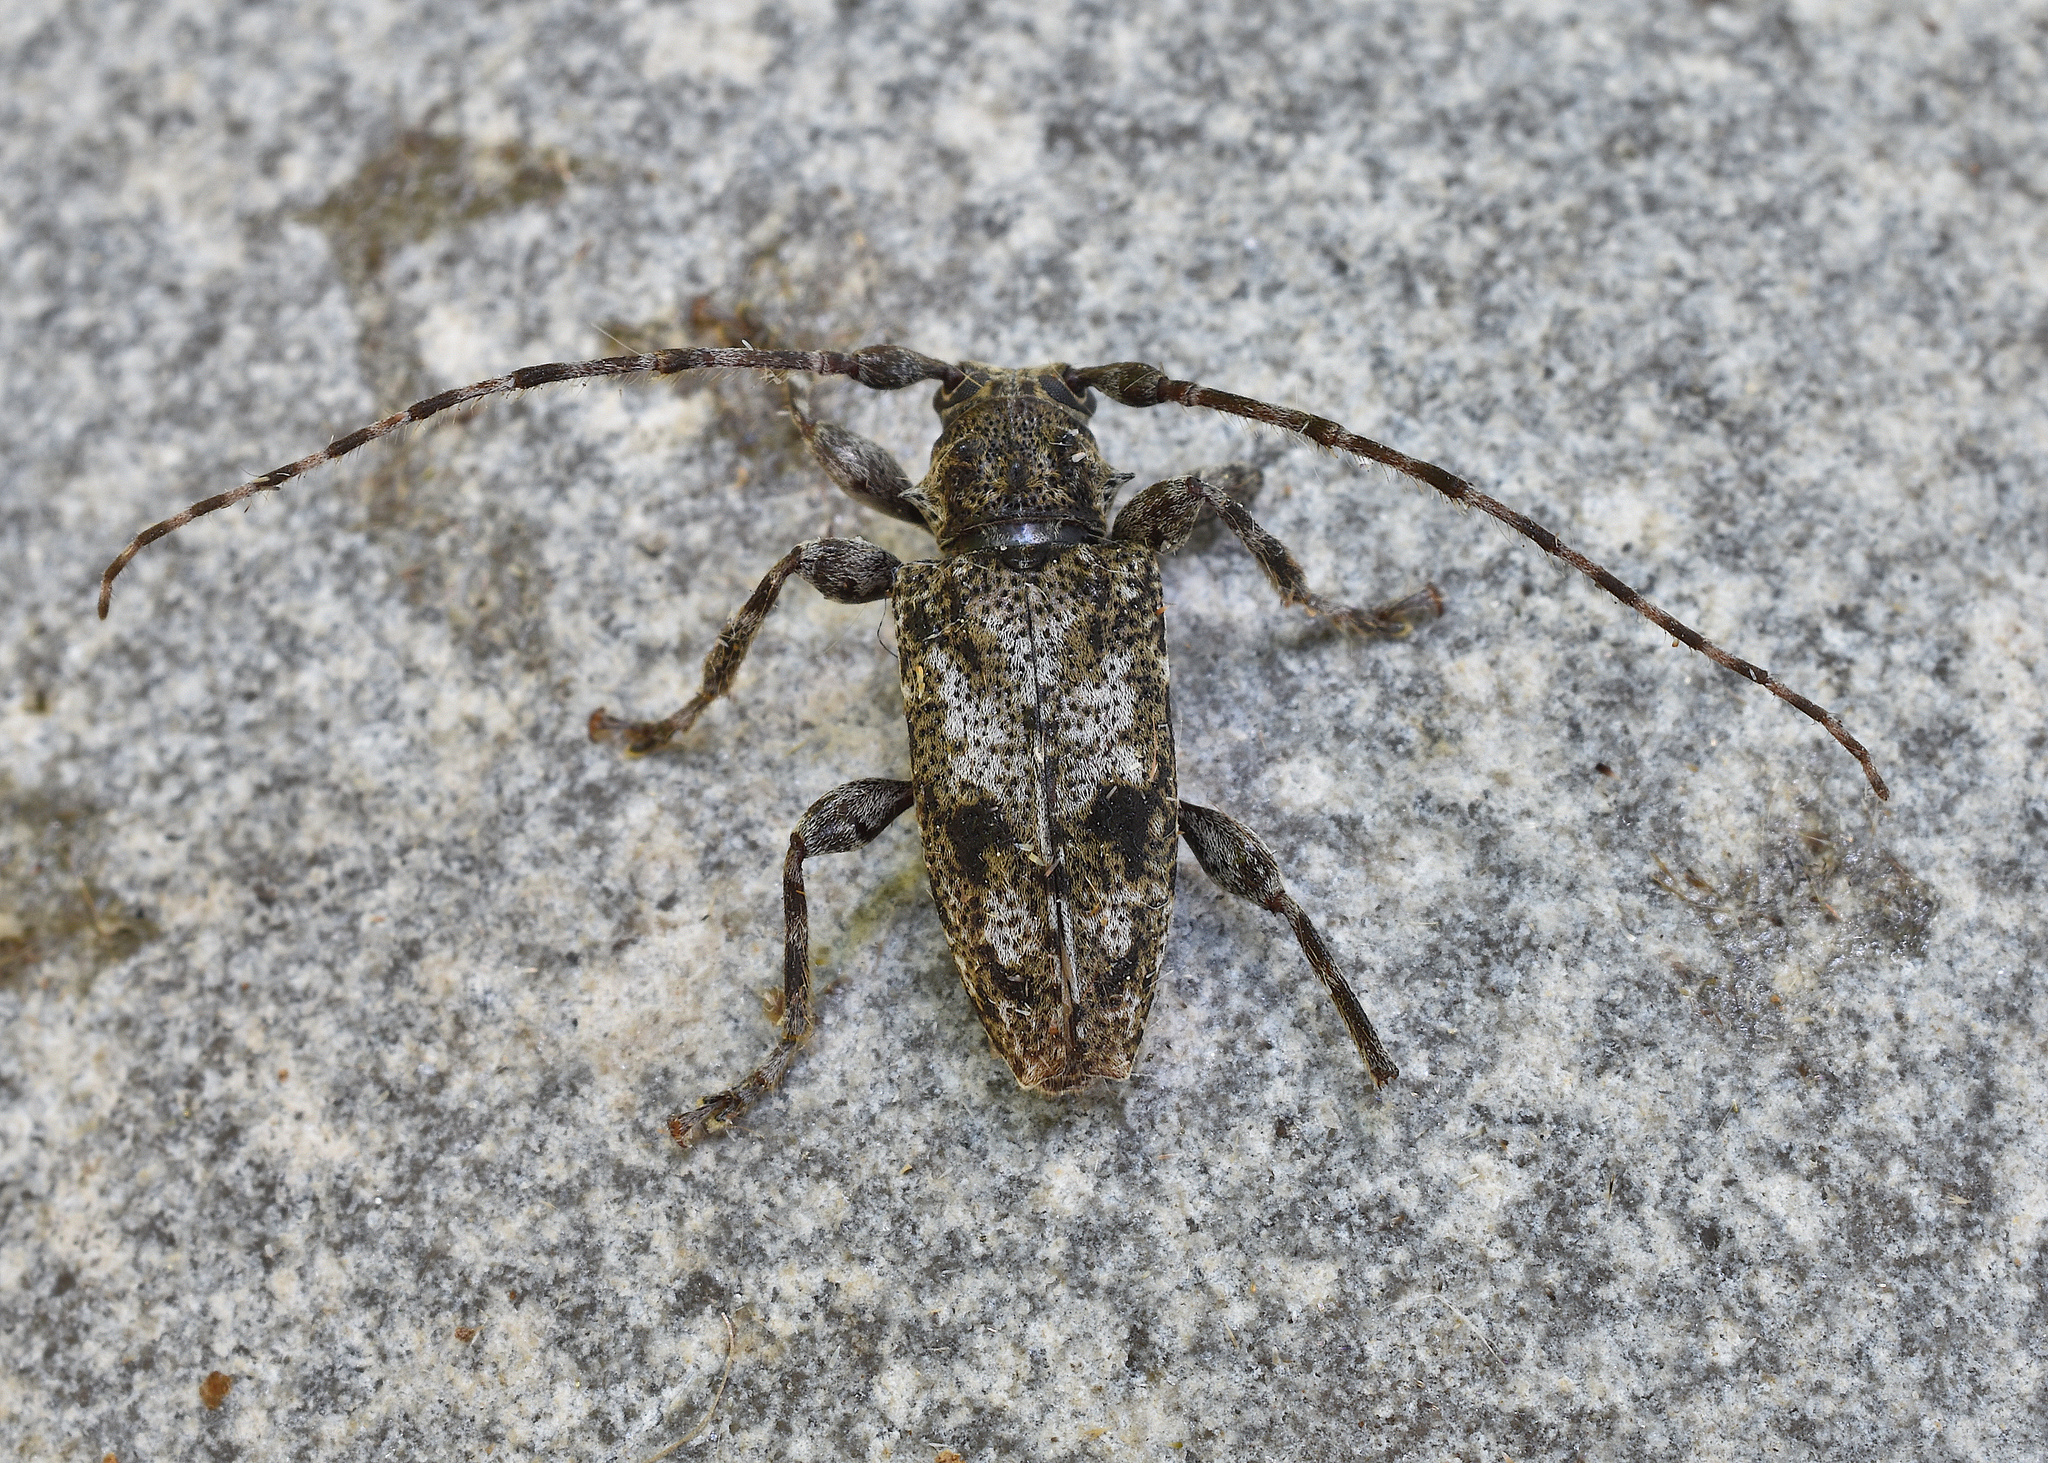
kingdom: Animalia
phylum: Arthropoda
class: Insecta
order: Coleoptera
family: Cerambycidae
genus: Aegomorphus
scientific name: Aegomorphus modestus
